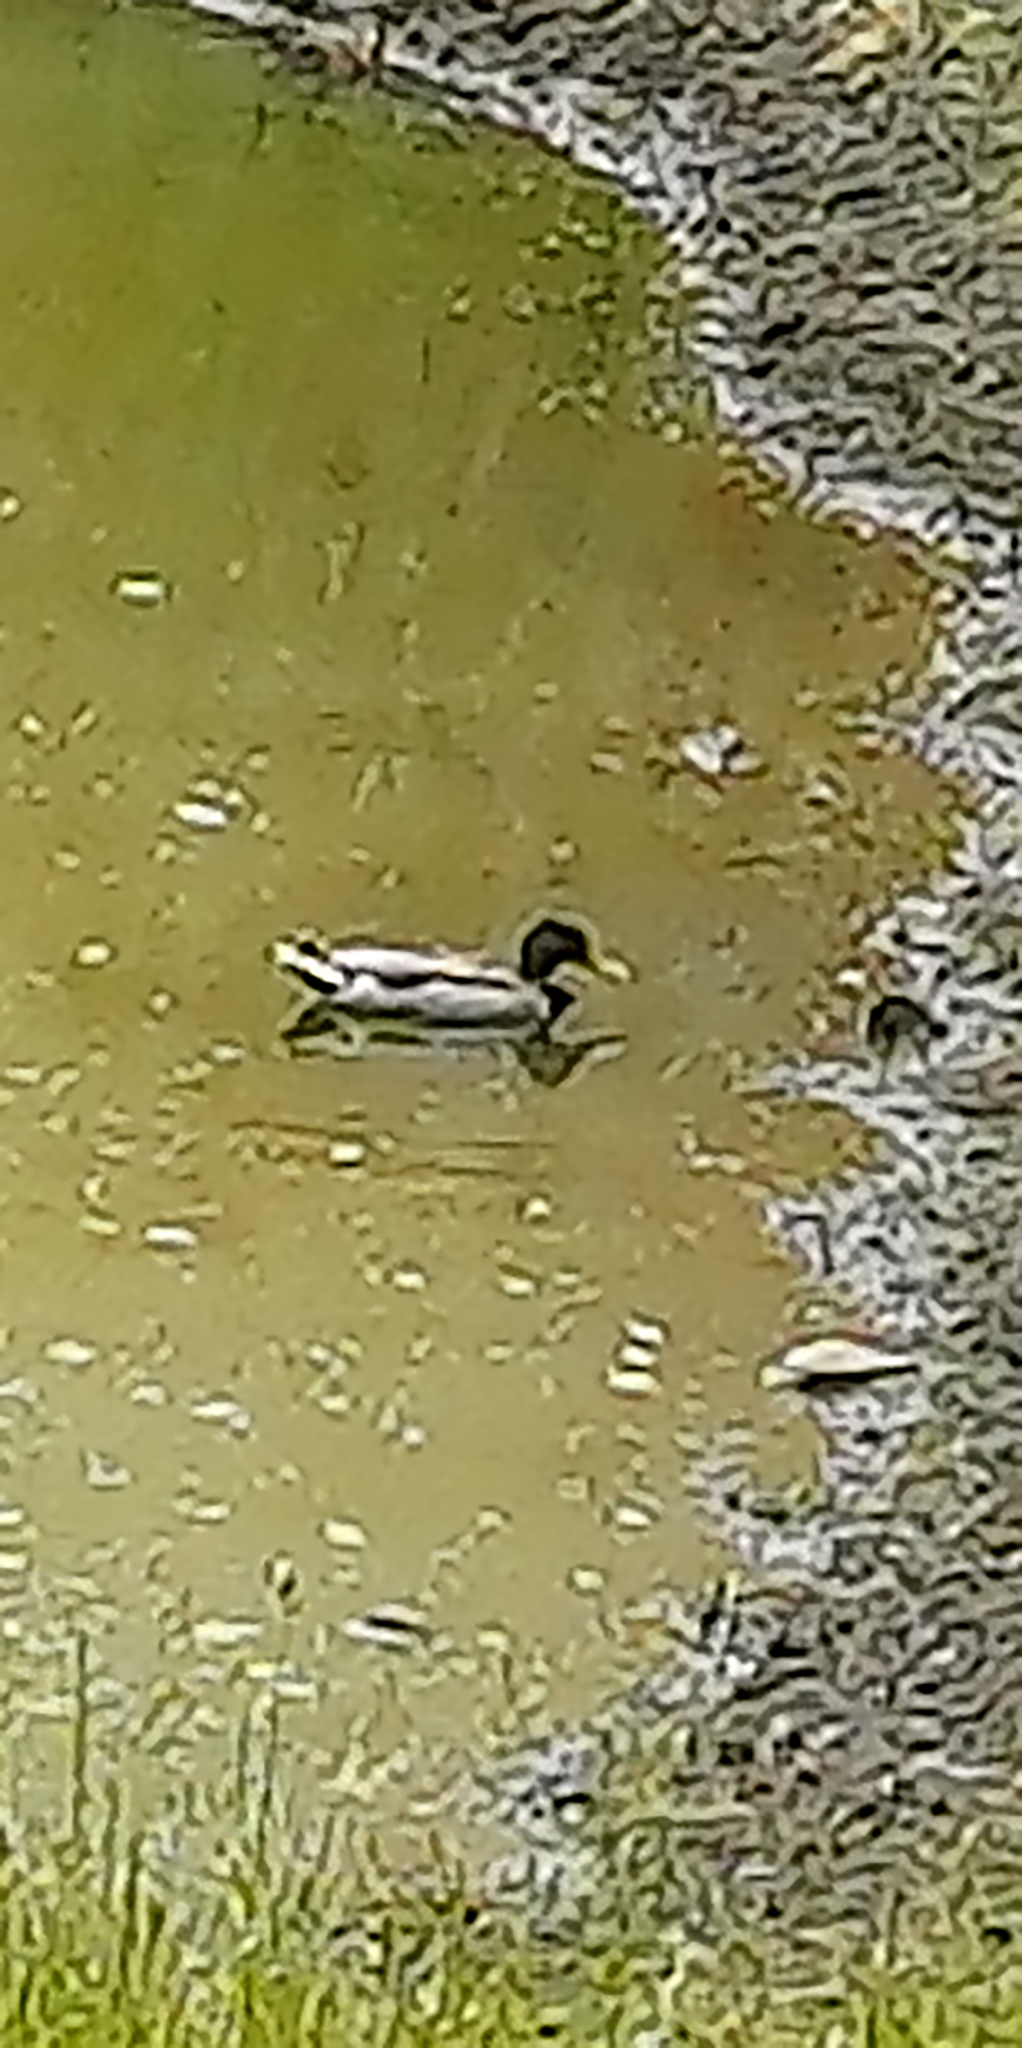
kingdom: Animalia
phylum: Chordata
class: Aves
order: Anseriformes
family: Anatidae
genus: Anas
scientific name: Anas platyrhynchos
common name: Mallard
